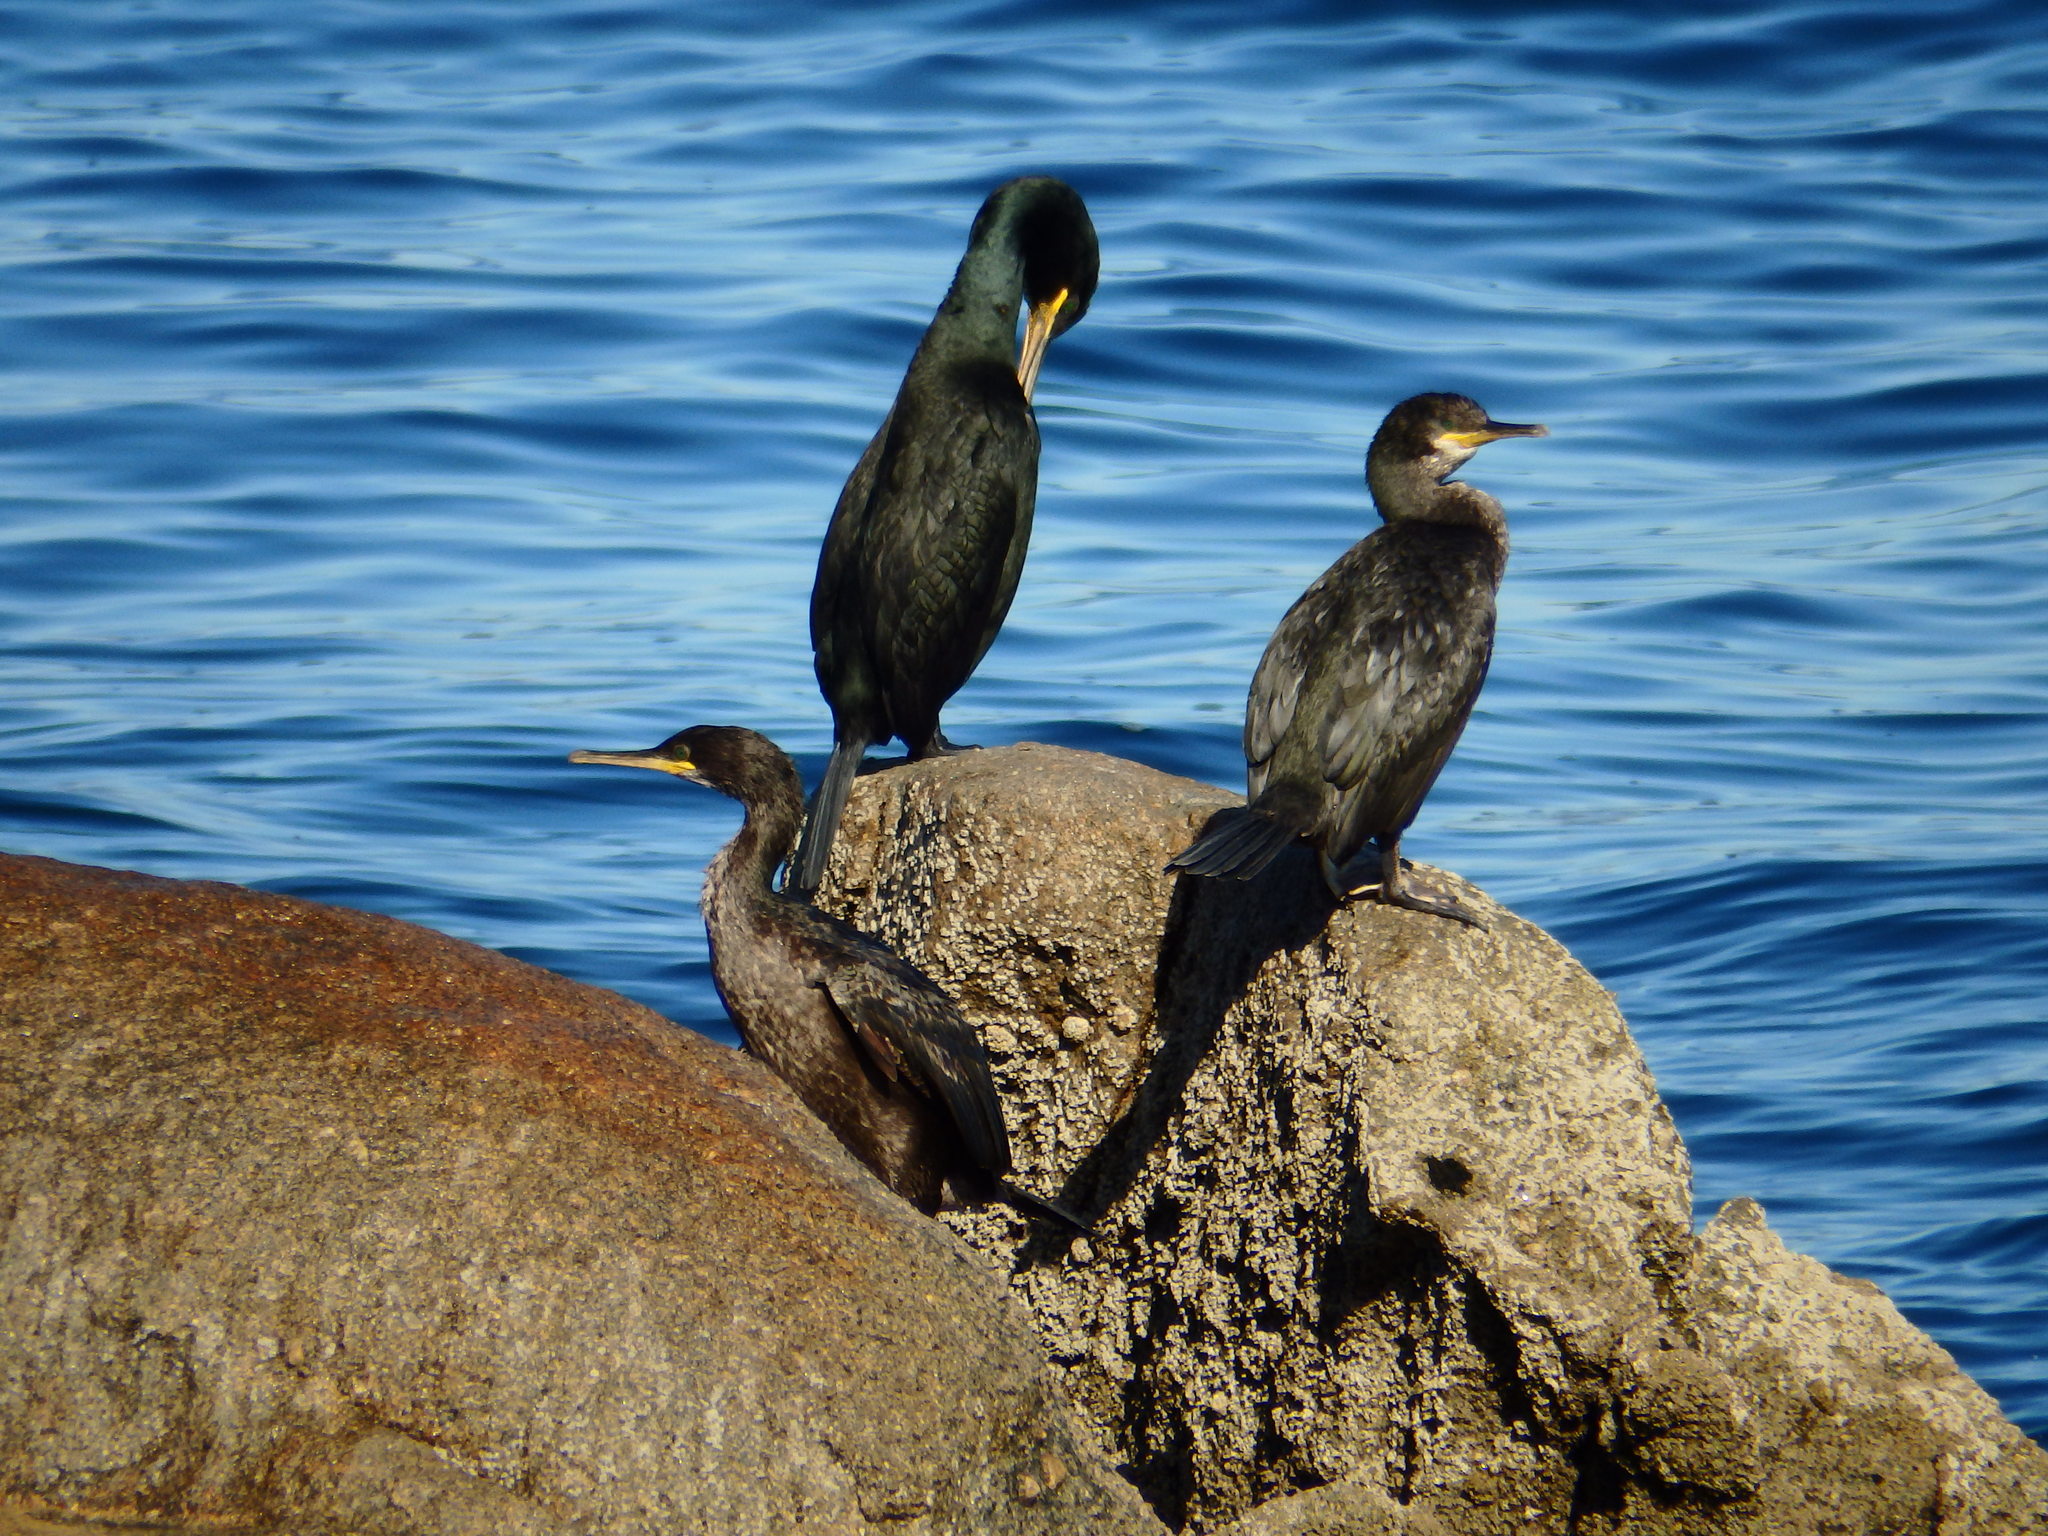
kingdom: Animalia
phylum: Chordata
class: Aves
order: Suliformes
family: Phalacrocoracidae
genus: Phalacrocorax
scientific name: Phalacrocorax aristotelis
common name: European shag
